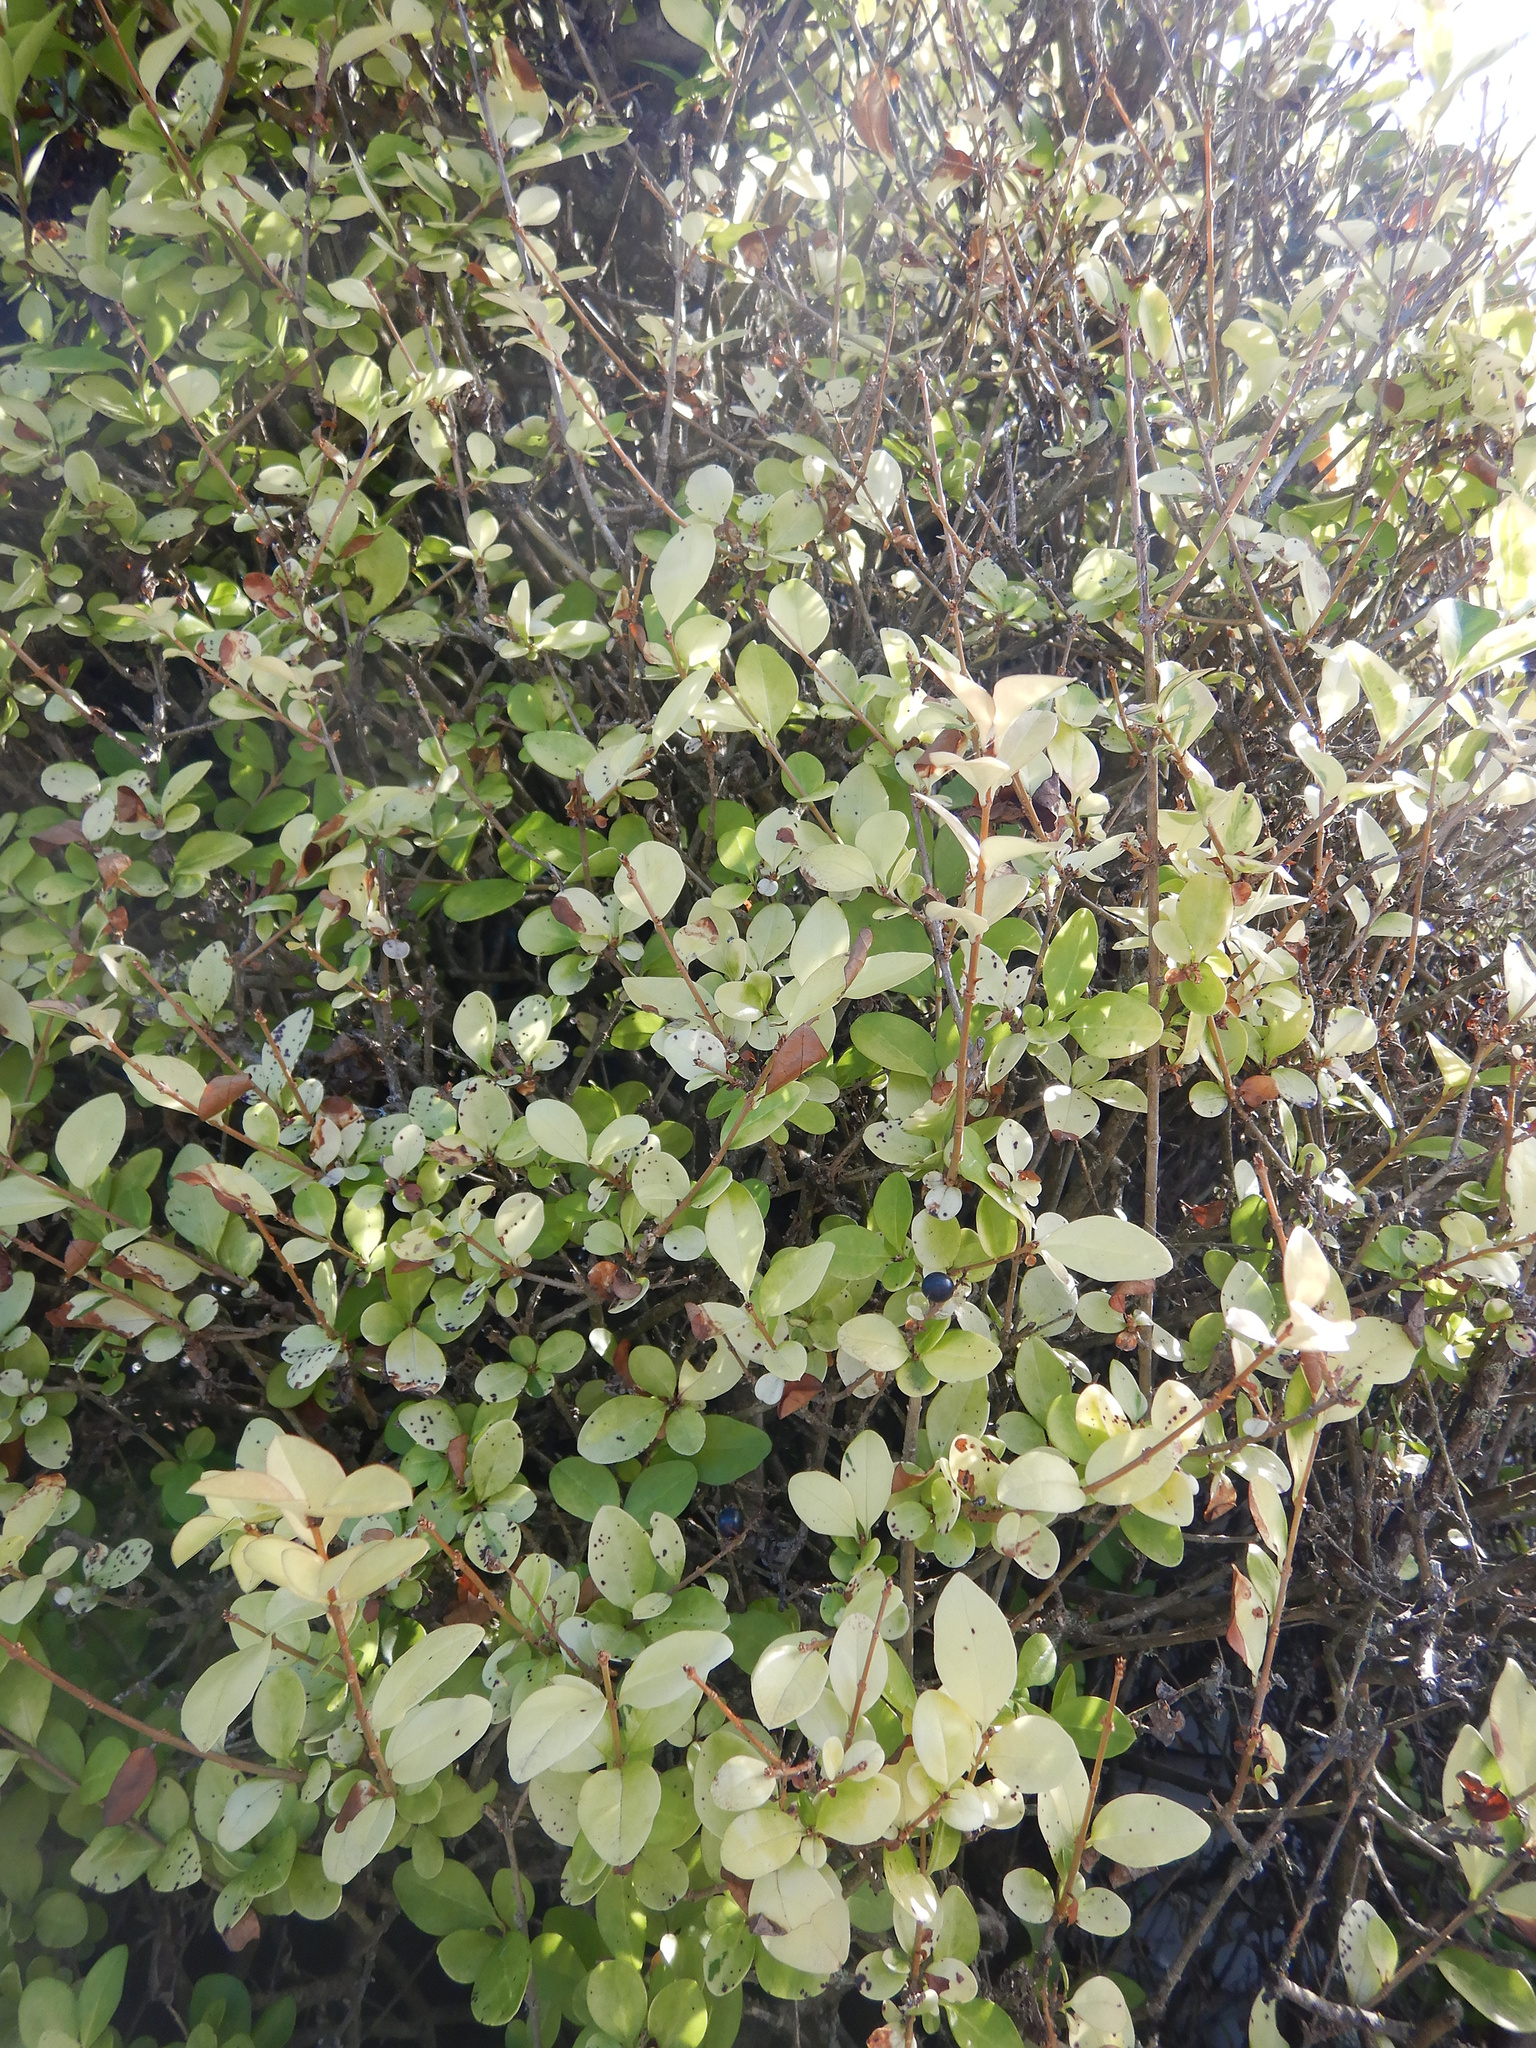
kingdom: Plantae
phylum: Tracheophyta
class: Magnoliopsida
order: Lamiales
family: Oleaceae
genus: Ligustrum
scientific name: Ligustrum vulgare
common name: Wild privet
